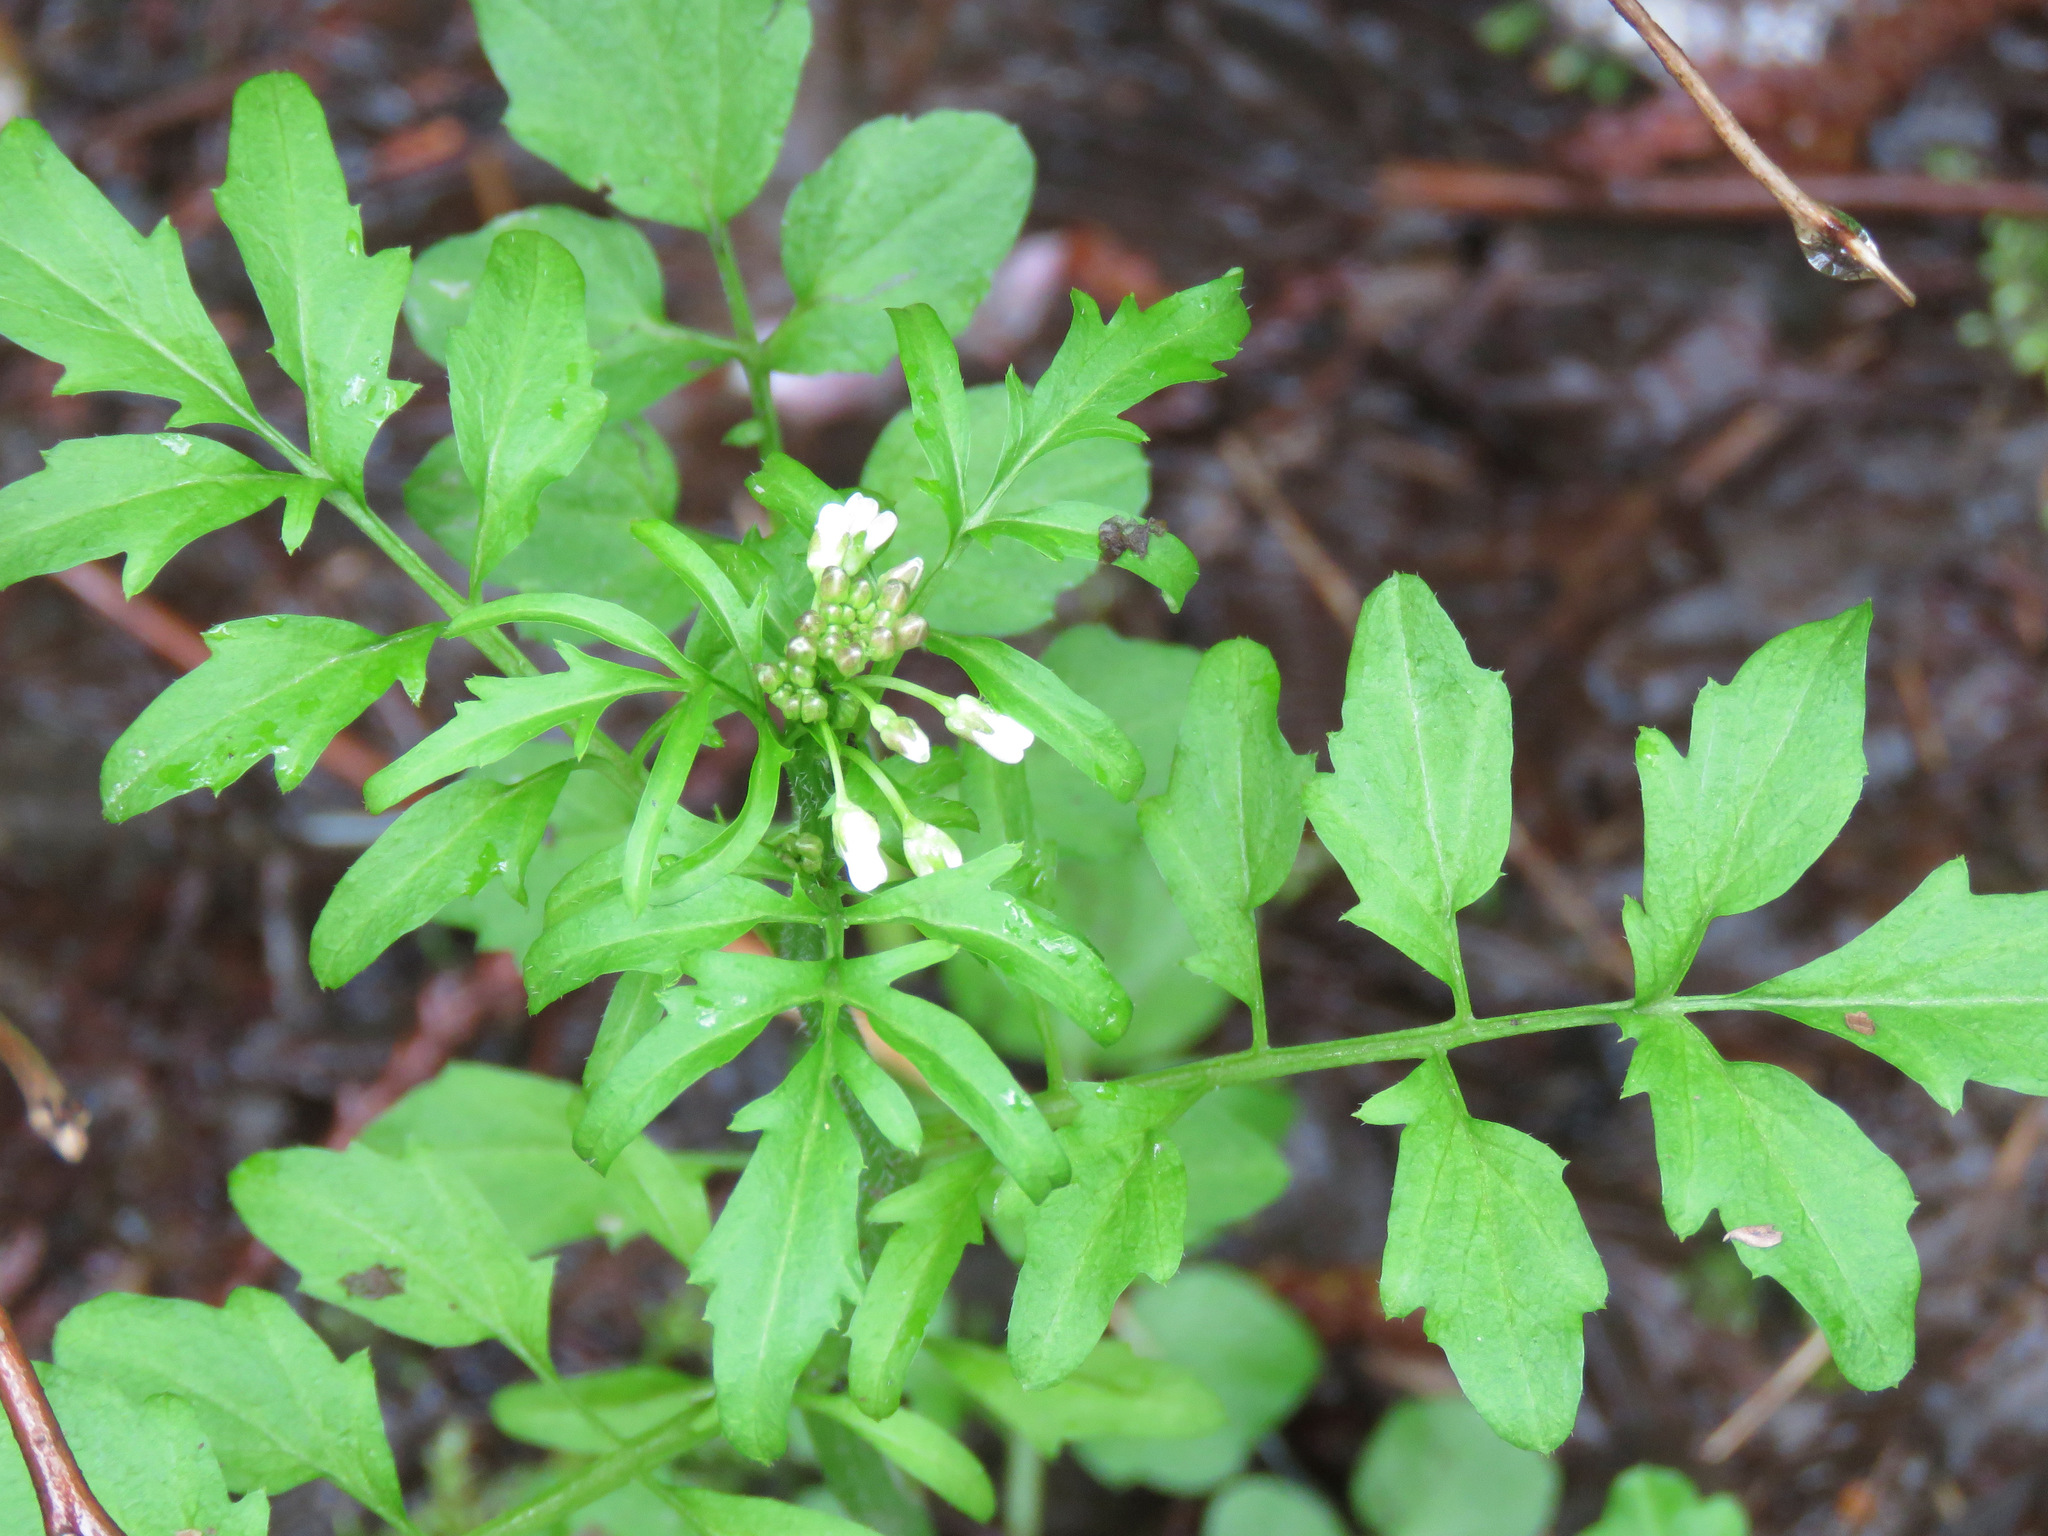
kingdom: Plantae
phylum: Tracheophyta
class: Magnoliopsida
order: Brassicales
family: Brassicaceae
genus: Cardamine
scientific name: Cardamine pensylvanica
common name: Pennsylvania bittercress
